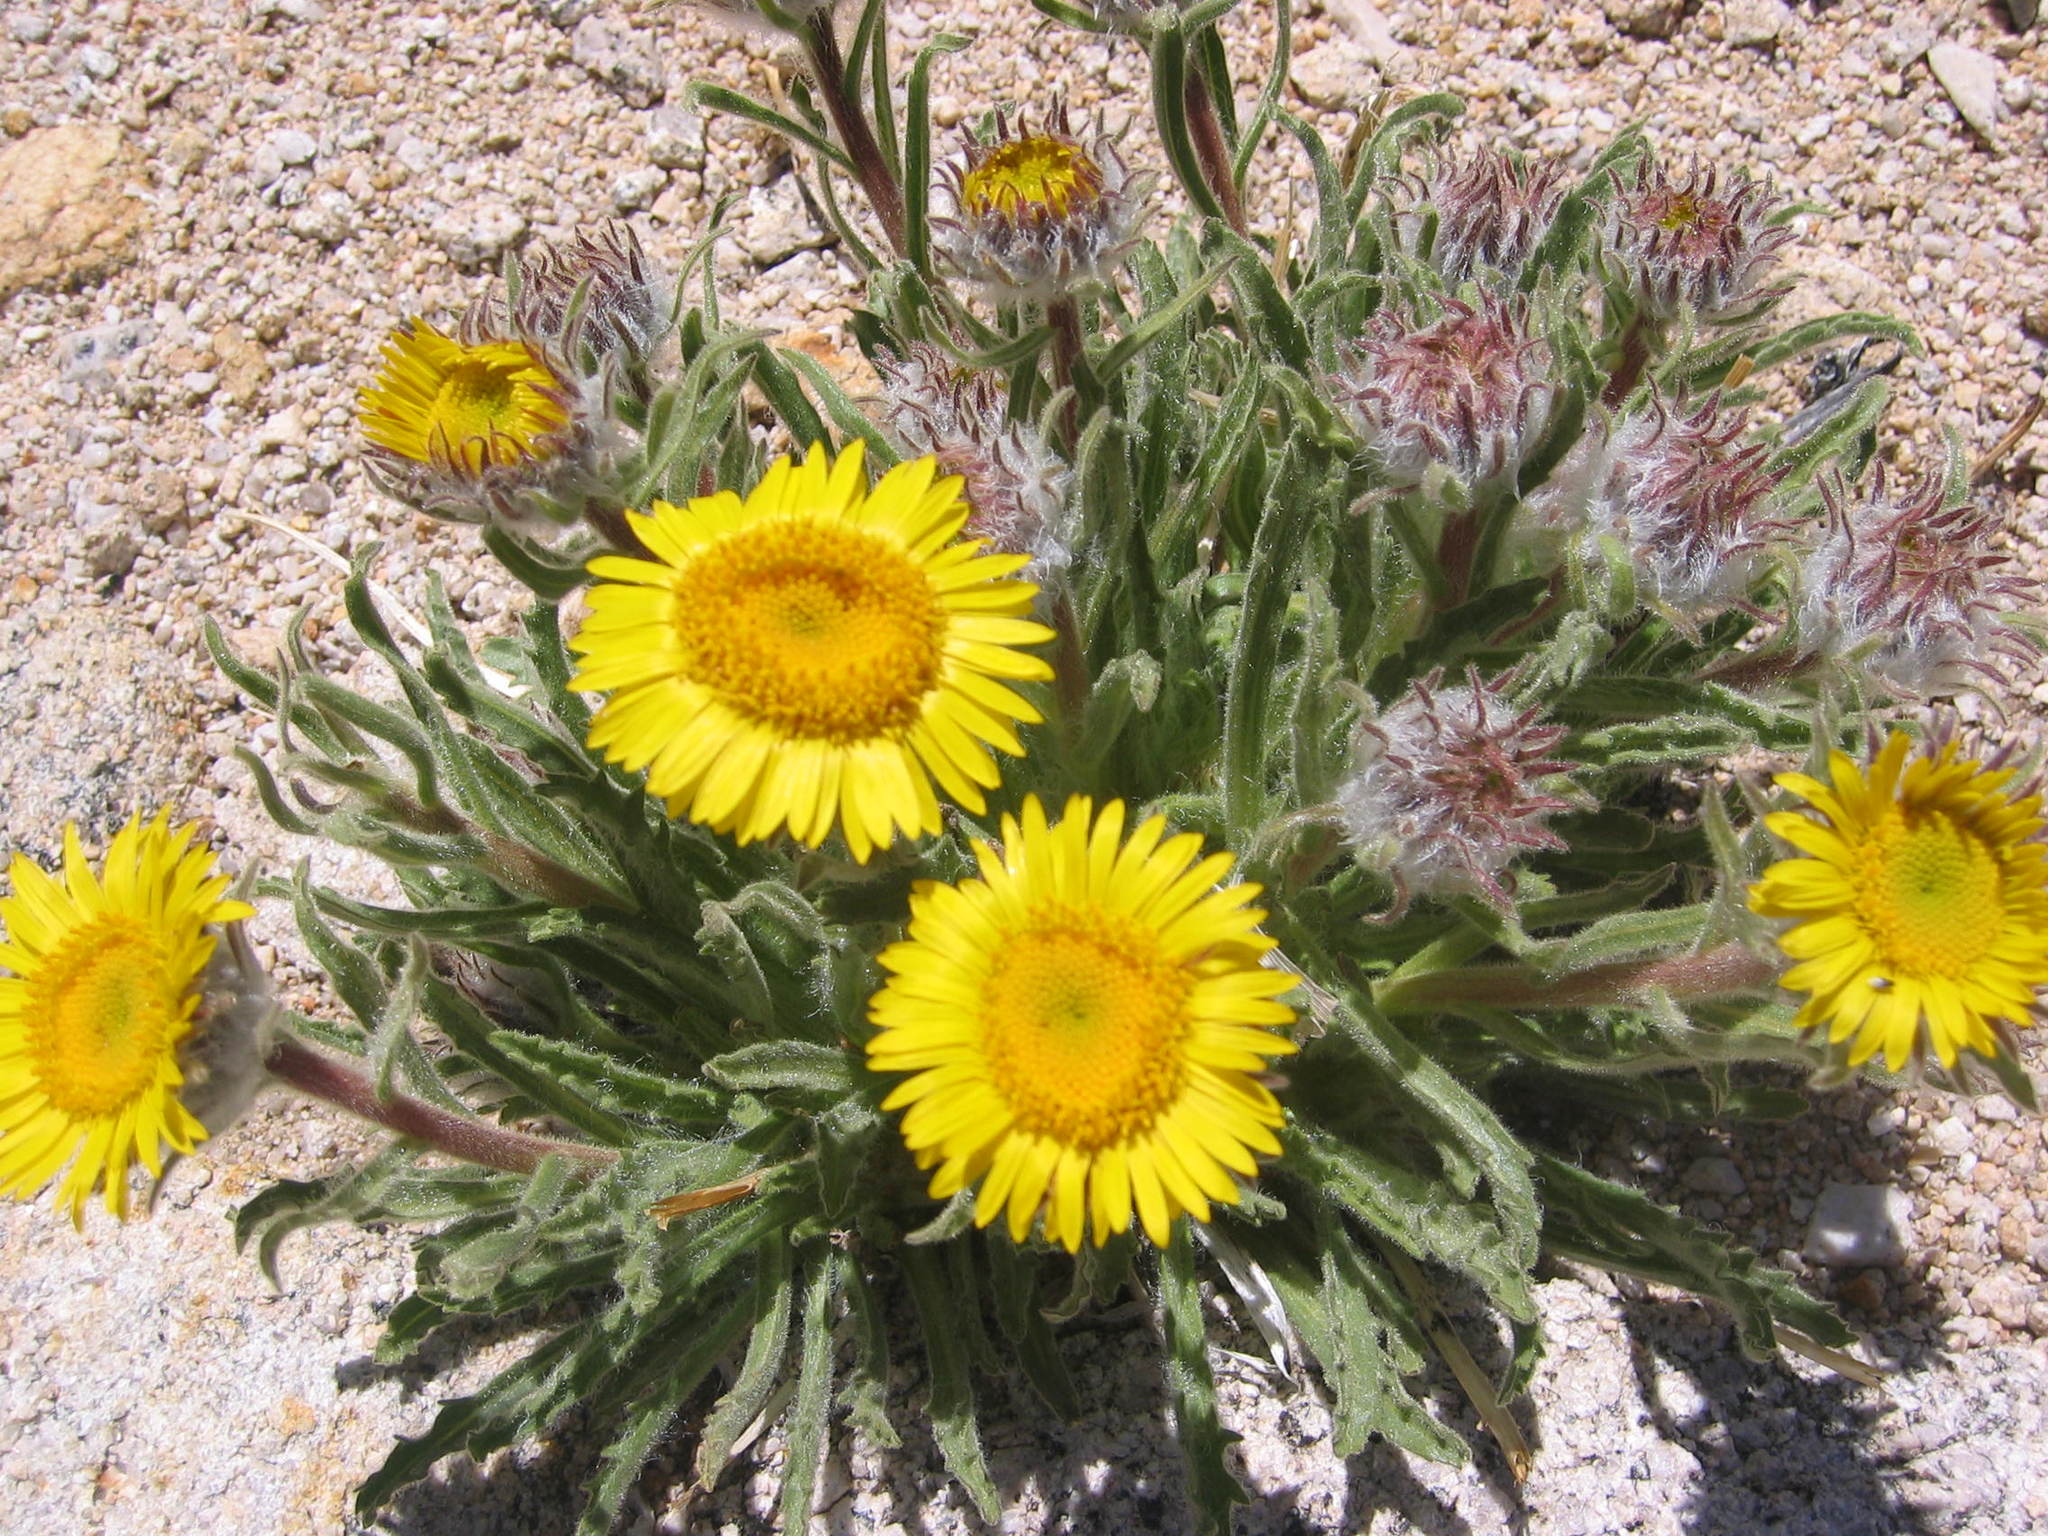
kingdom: Plantae
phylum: Tracheophyta
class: Magnoliopsida
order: Asterales
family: Asteraceae
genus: Hulsea
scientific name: Hulsea algida
